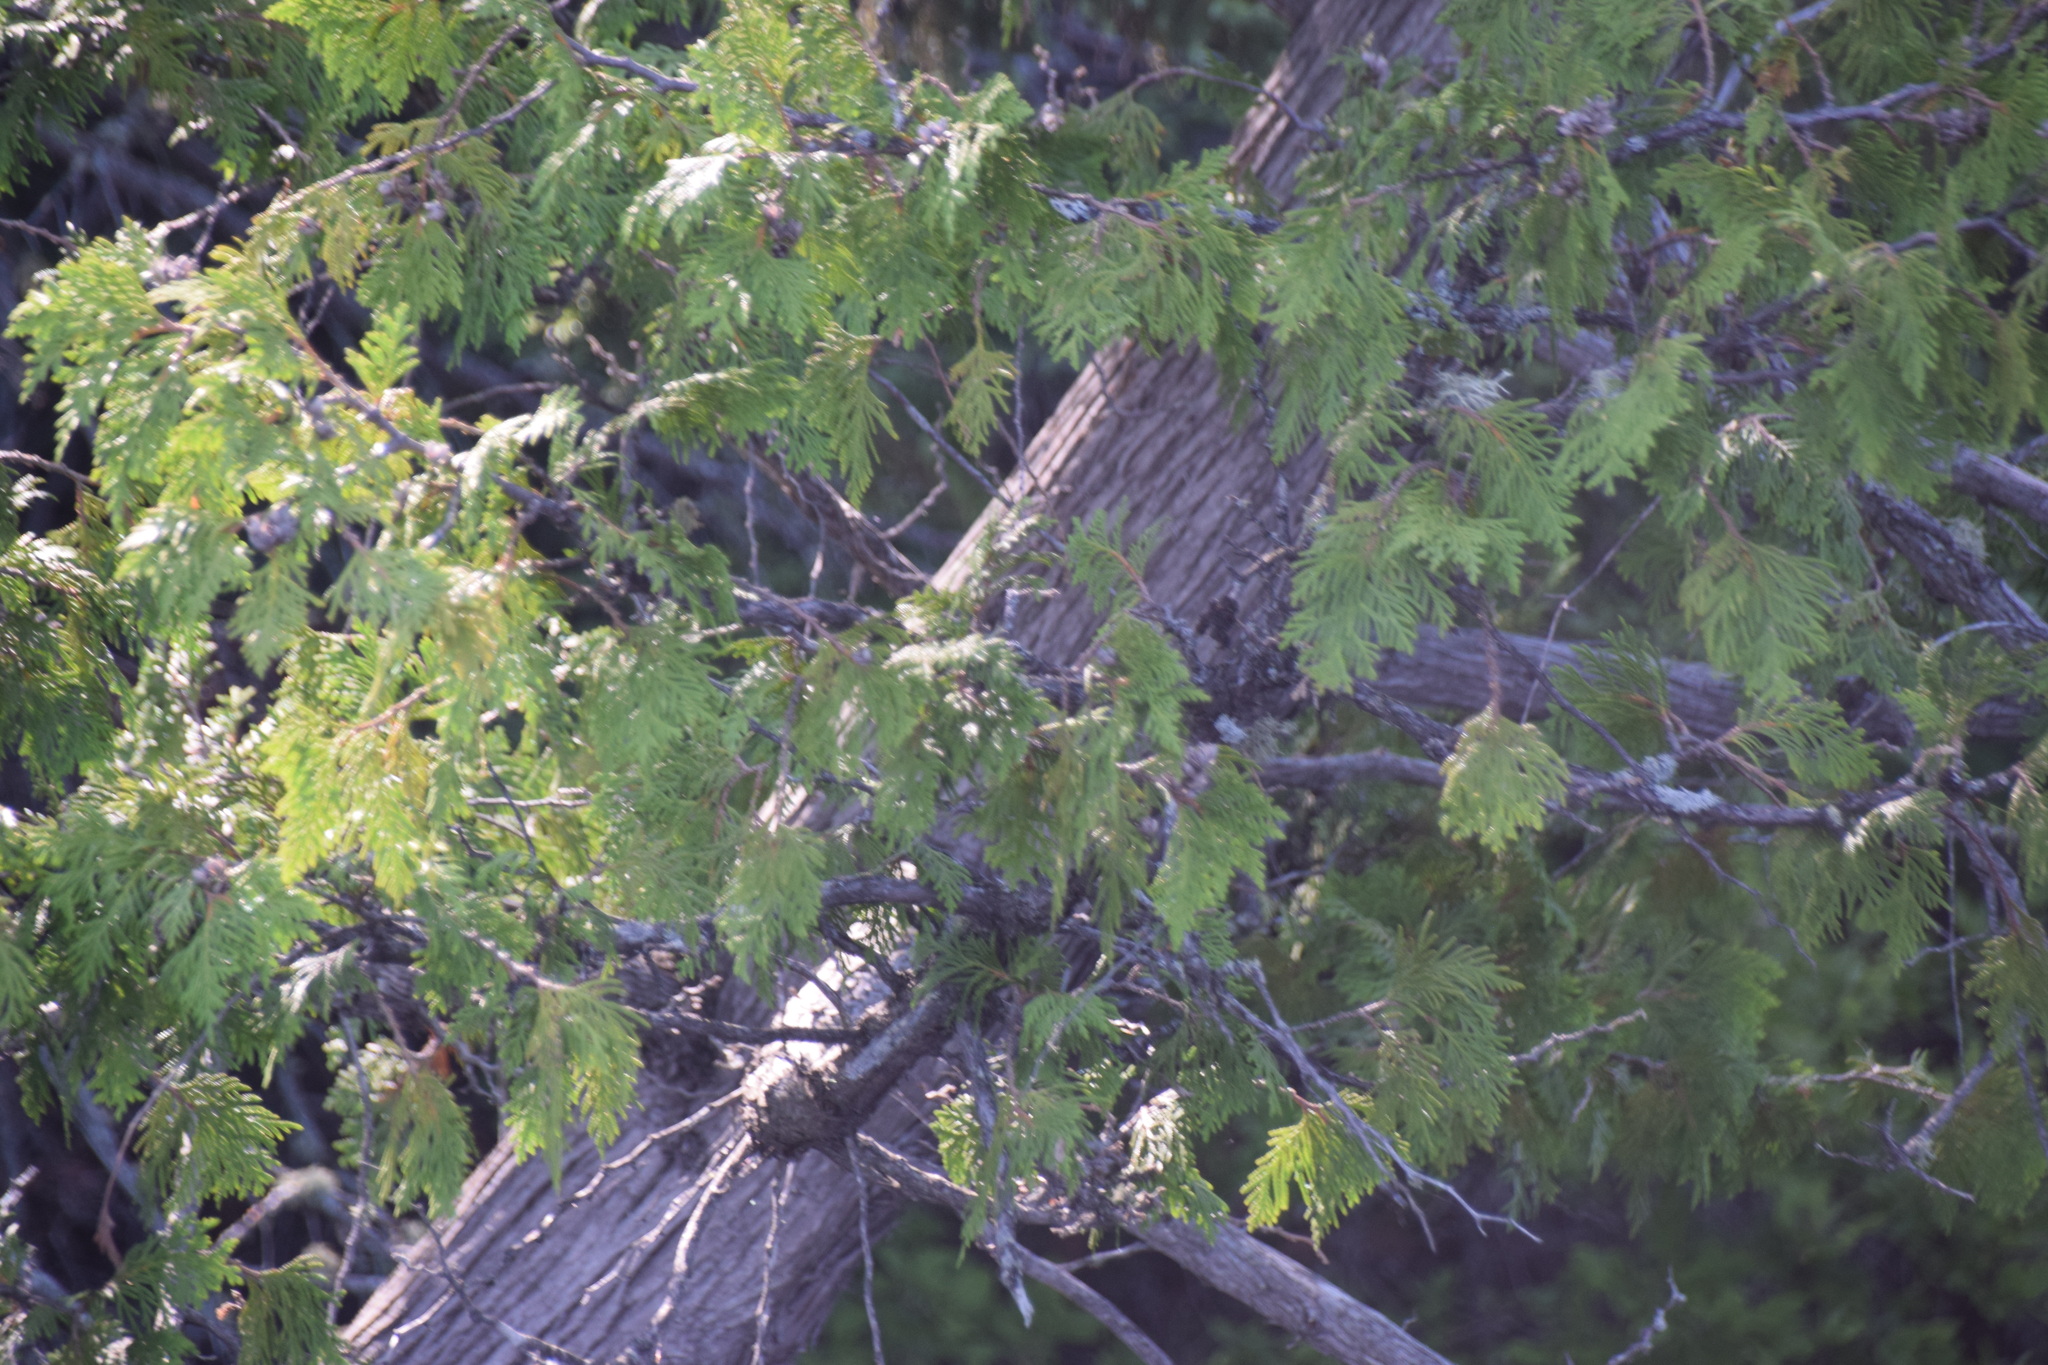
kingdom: Plantae
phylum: Tracheophyta
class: Pinopsida
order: Pinales
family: Cupressaceae
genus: Thuja
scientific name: Thuja occidentalis
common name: Northern white-cedar
